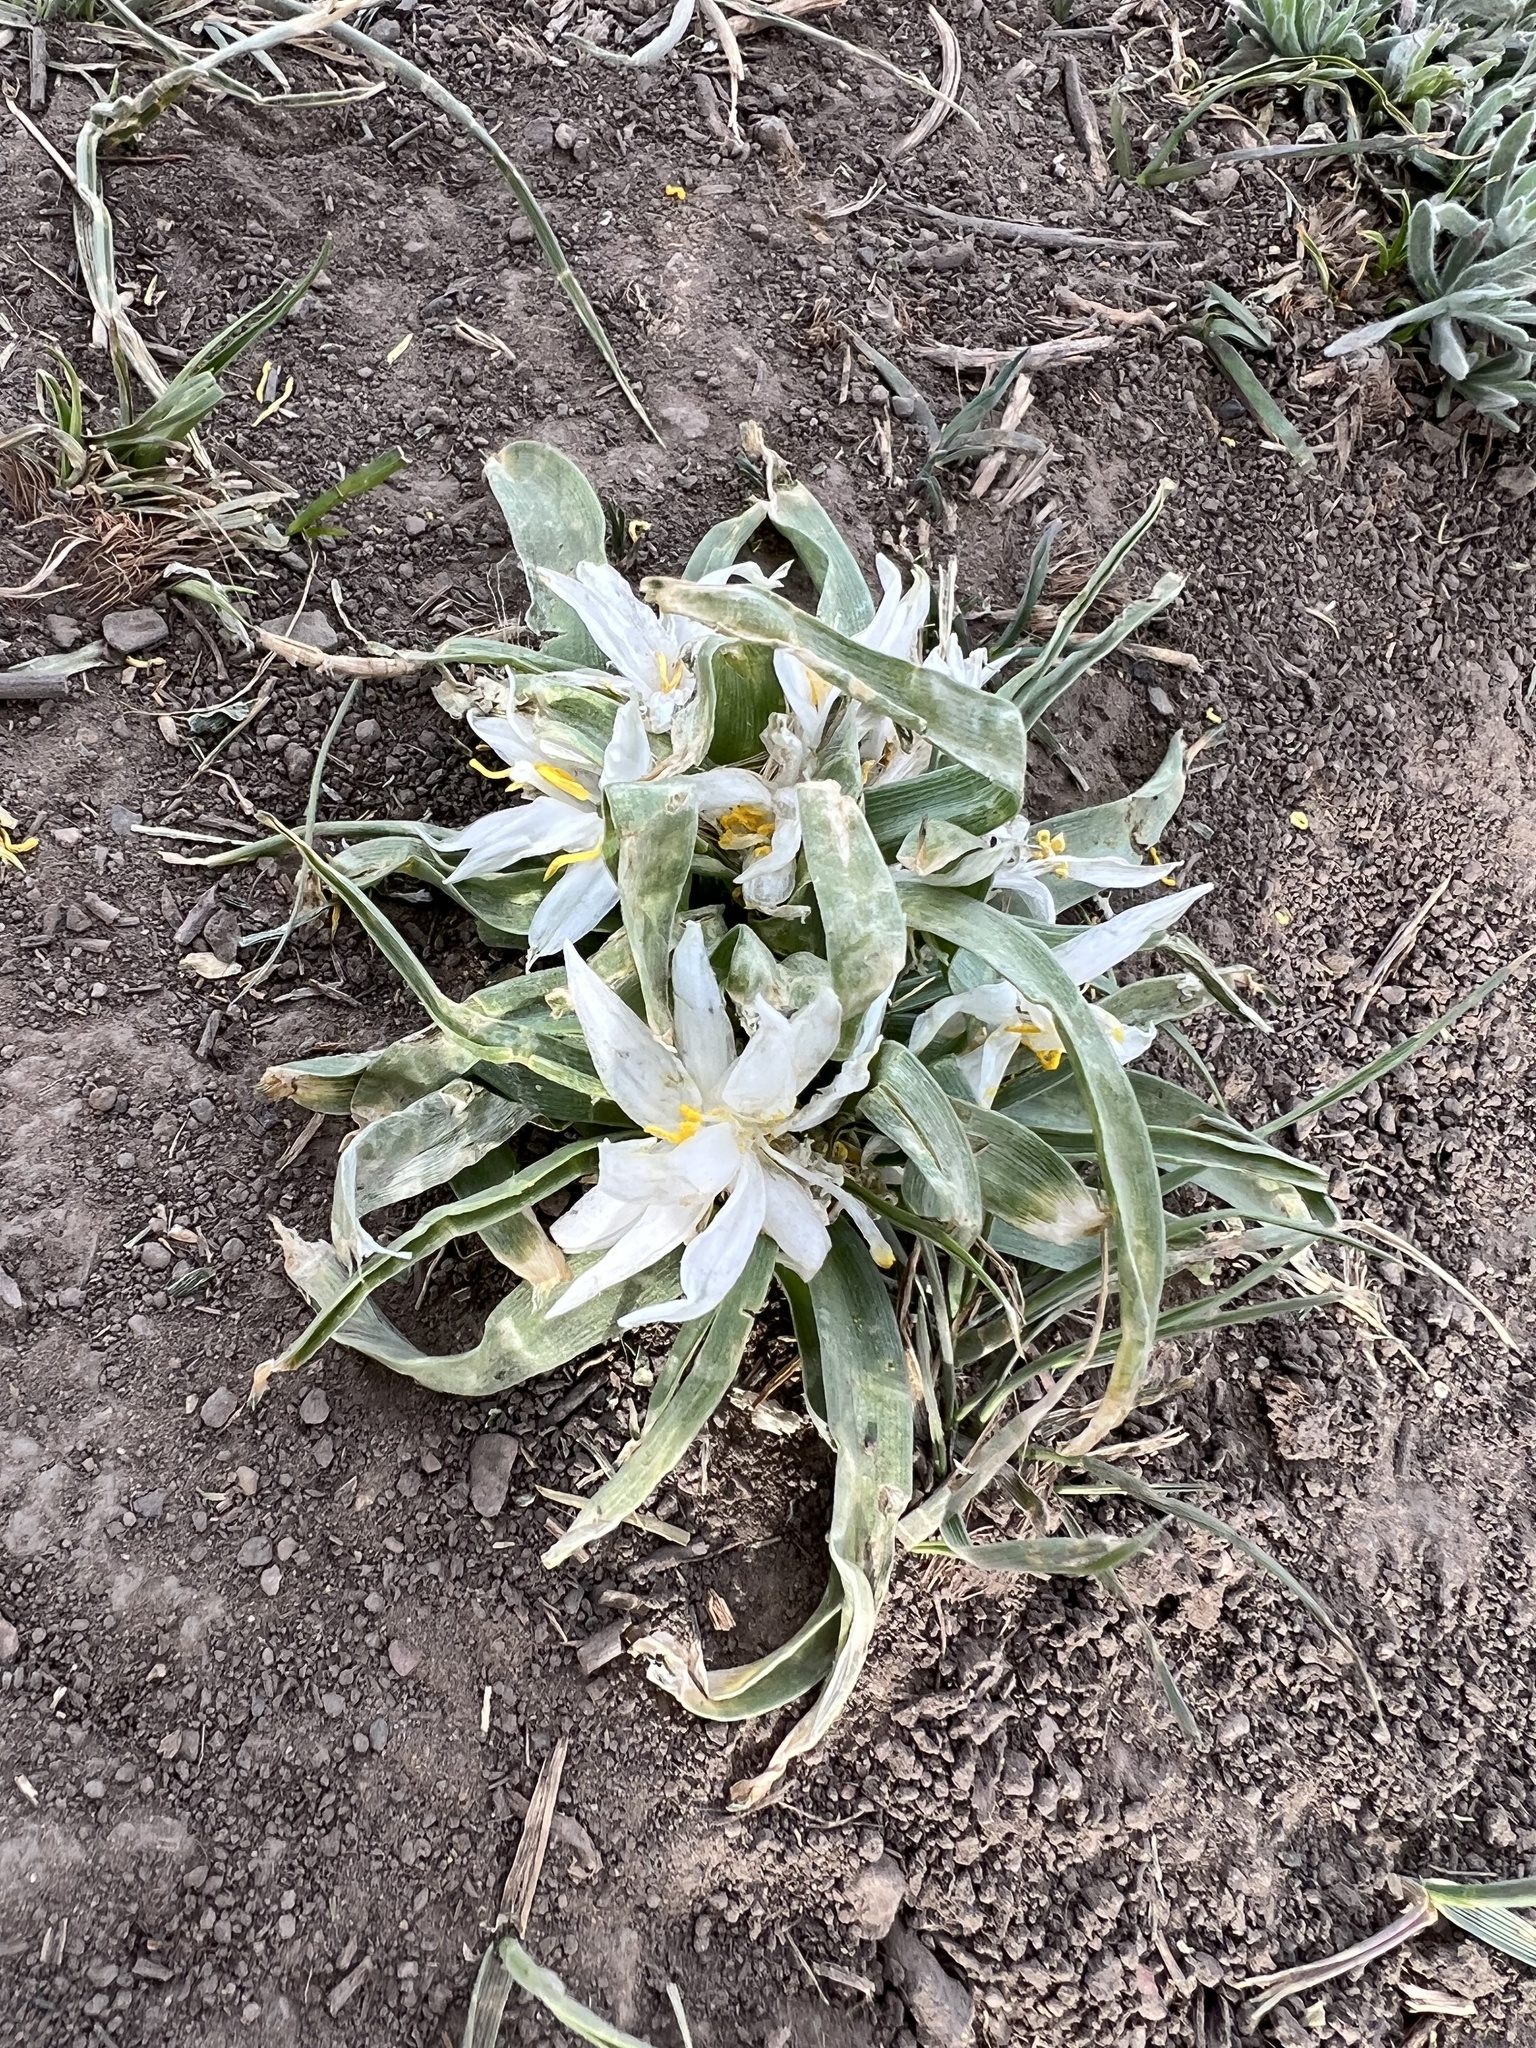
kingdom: Plantae
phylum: Tracheophyta
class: Liliopsida
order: Asparagales
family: Asparagaceae
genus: Leucocrinum
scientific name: Leucocrinum montanum
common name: Mountain-lily
